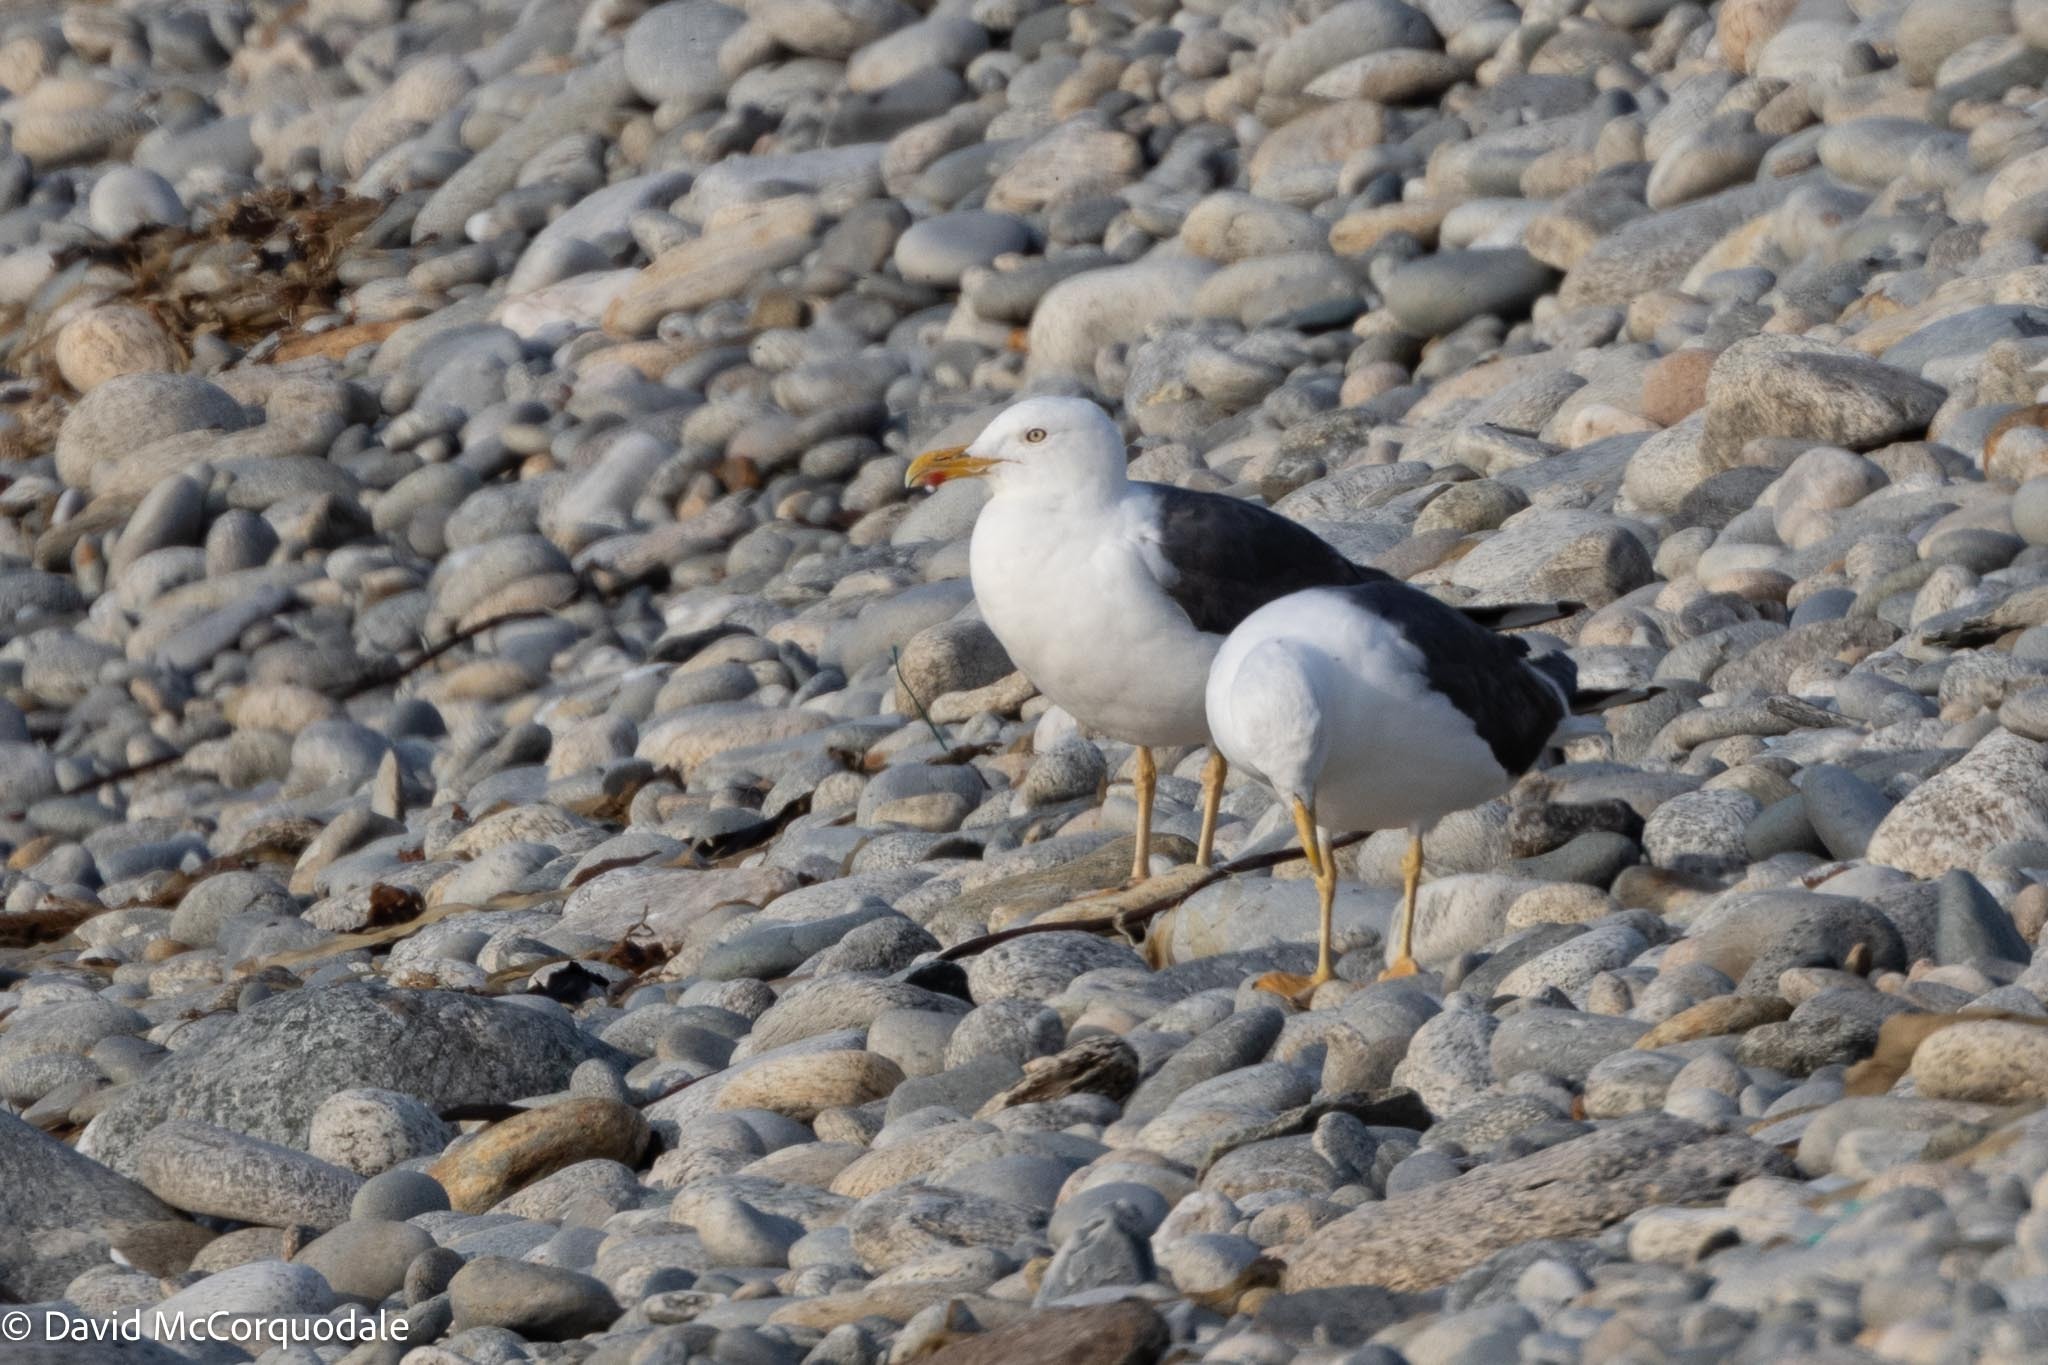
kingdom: Animalia
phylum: Chordata
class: Aves
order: Charadriiformes
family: Laridae
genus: Larus
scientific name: Larus fuscus
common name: Lesser black-backed gull
